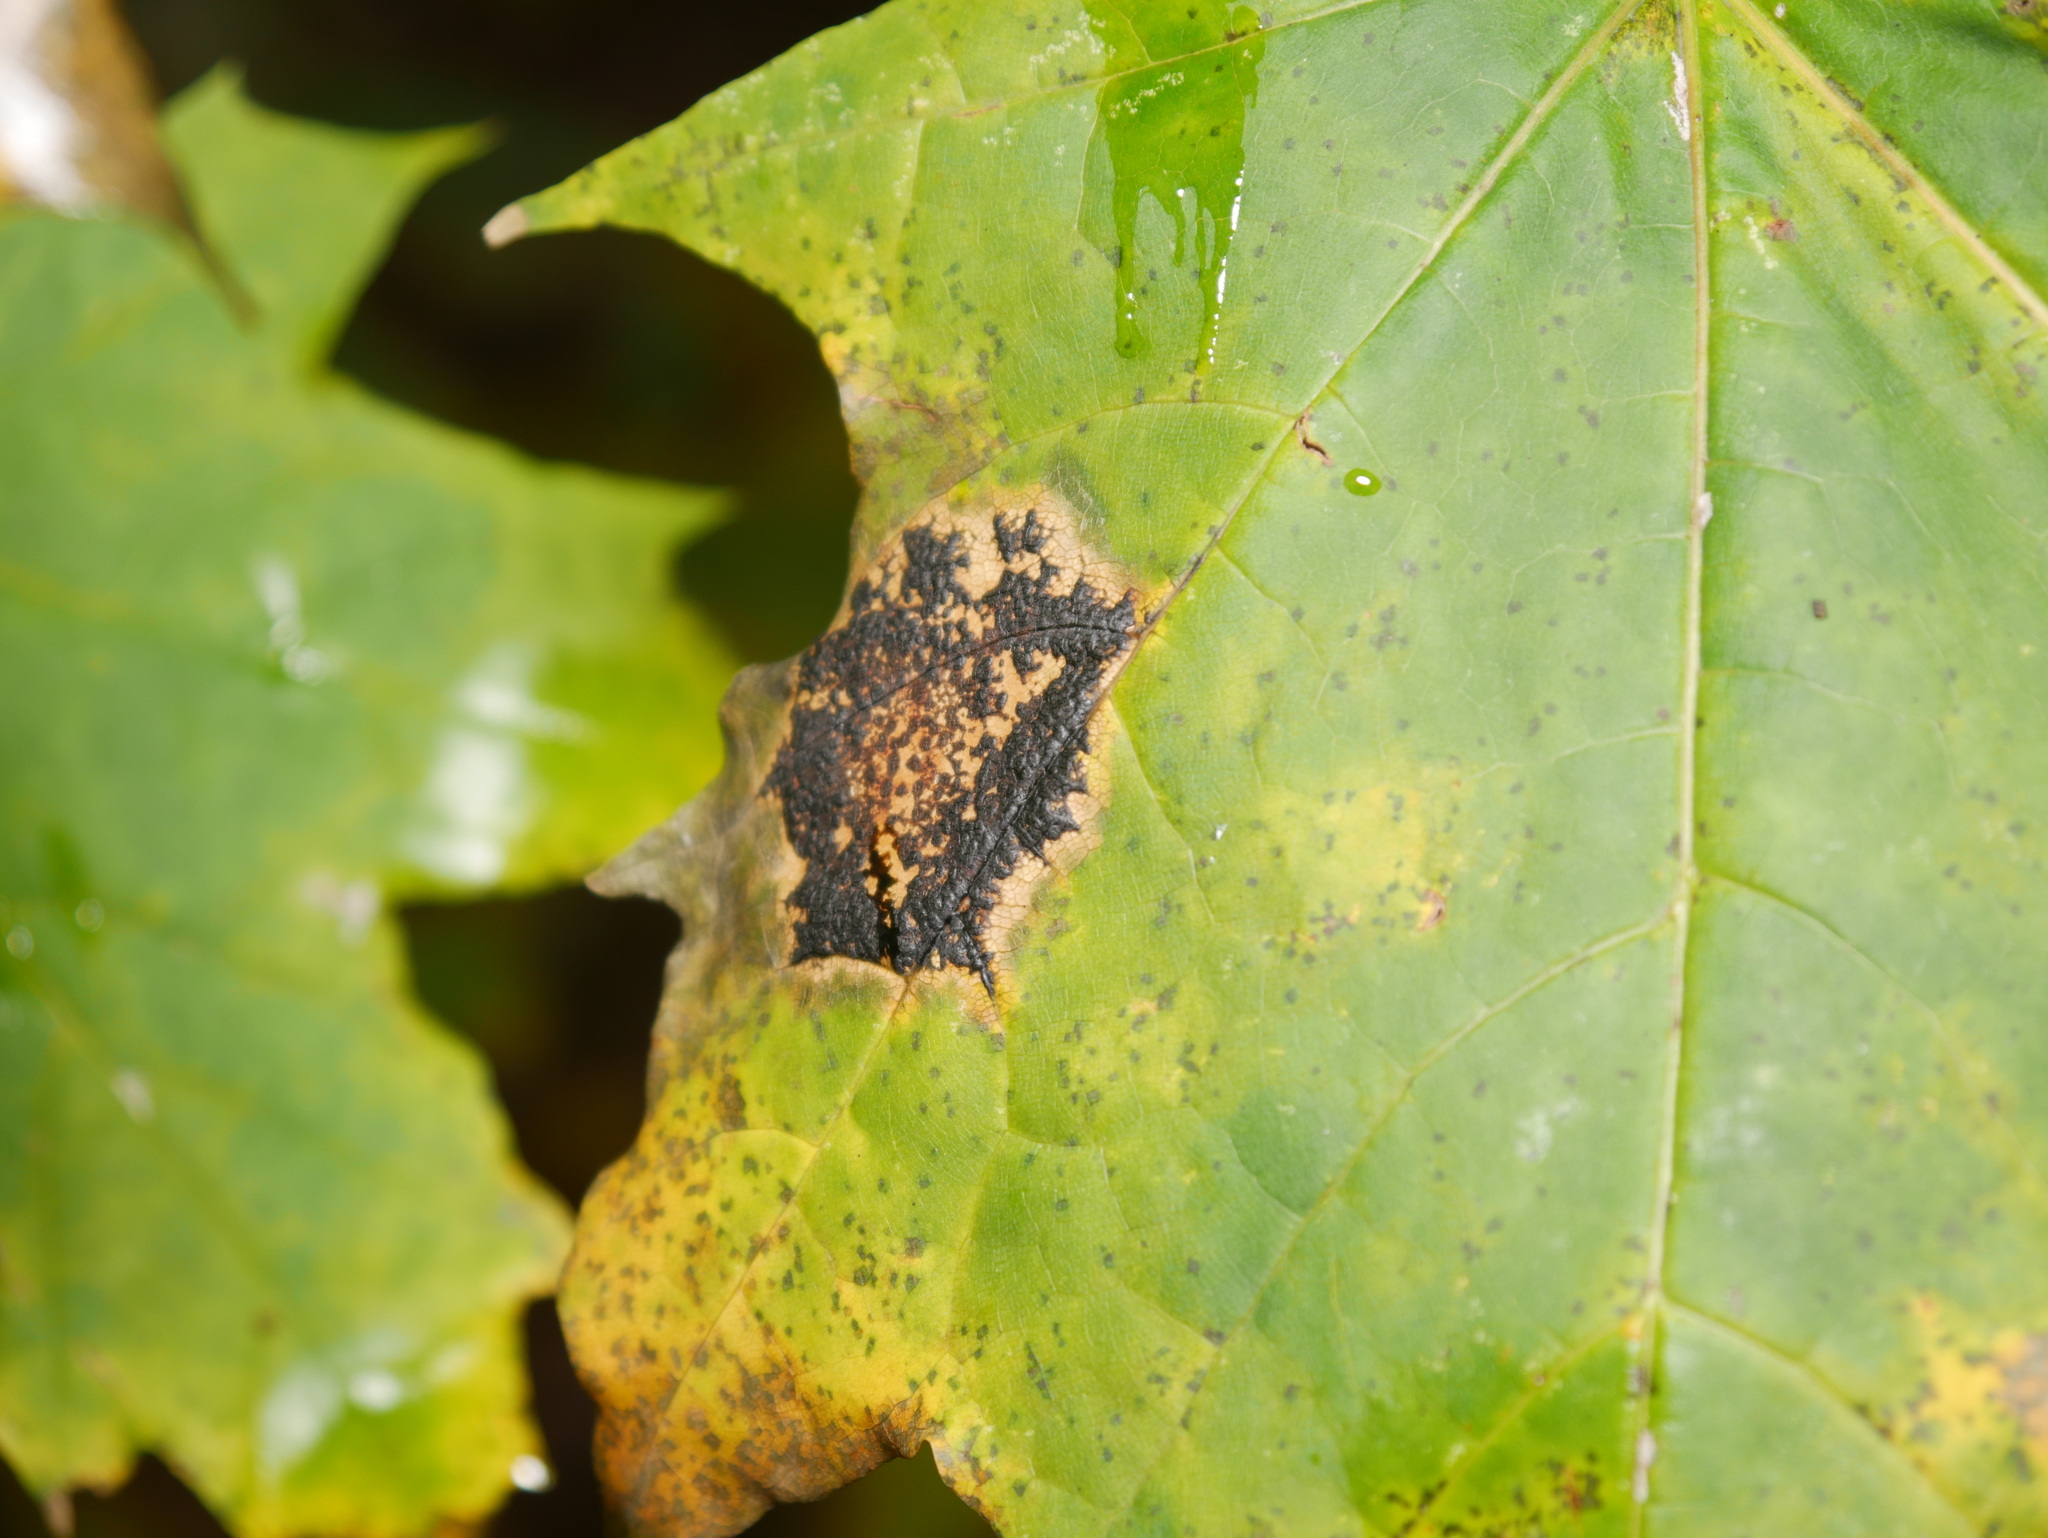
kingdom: Fungi
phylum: Ascomycota
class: Leotiomycetes
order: Rhytismatales
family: Rhytismataceae
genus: Rhytisma
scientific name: Rhytisma acerinum
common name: European tar spot
